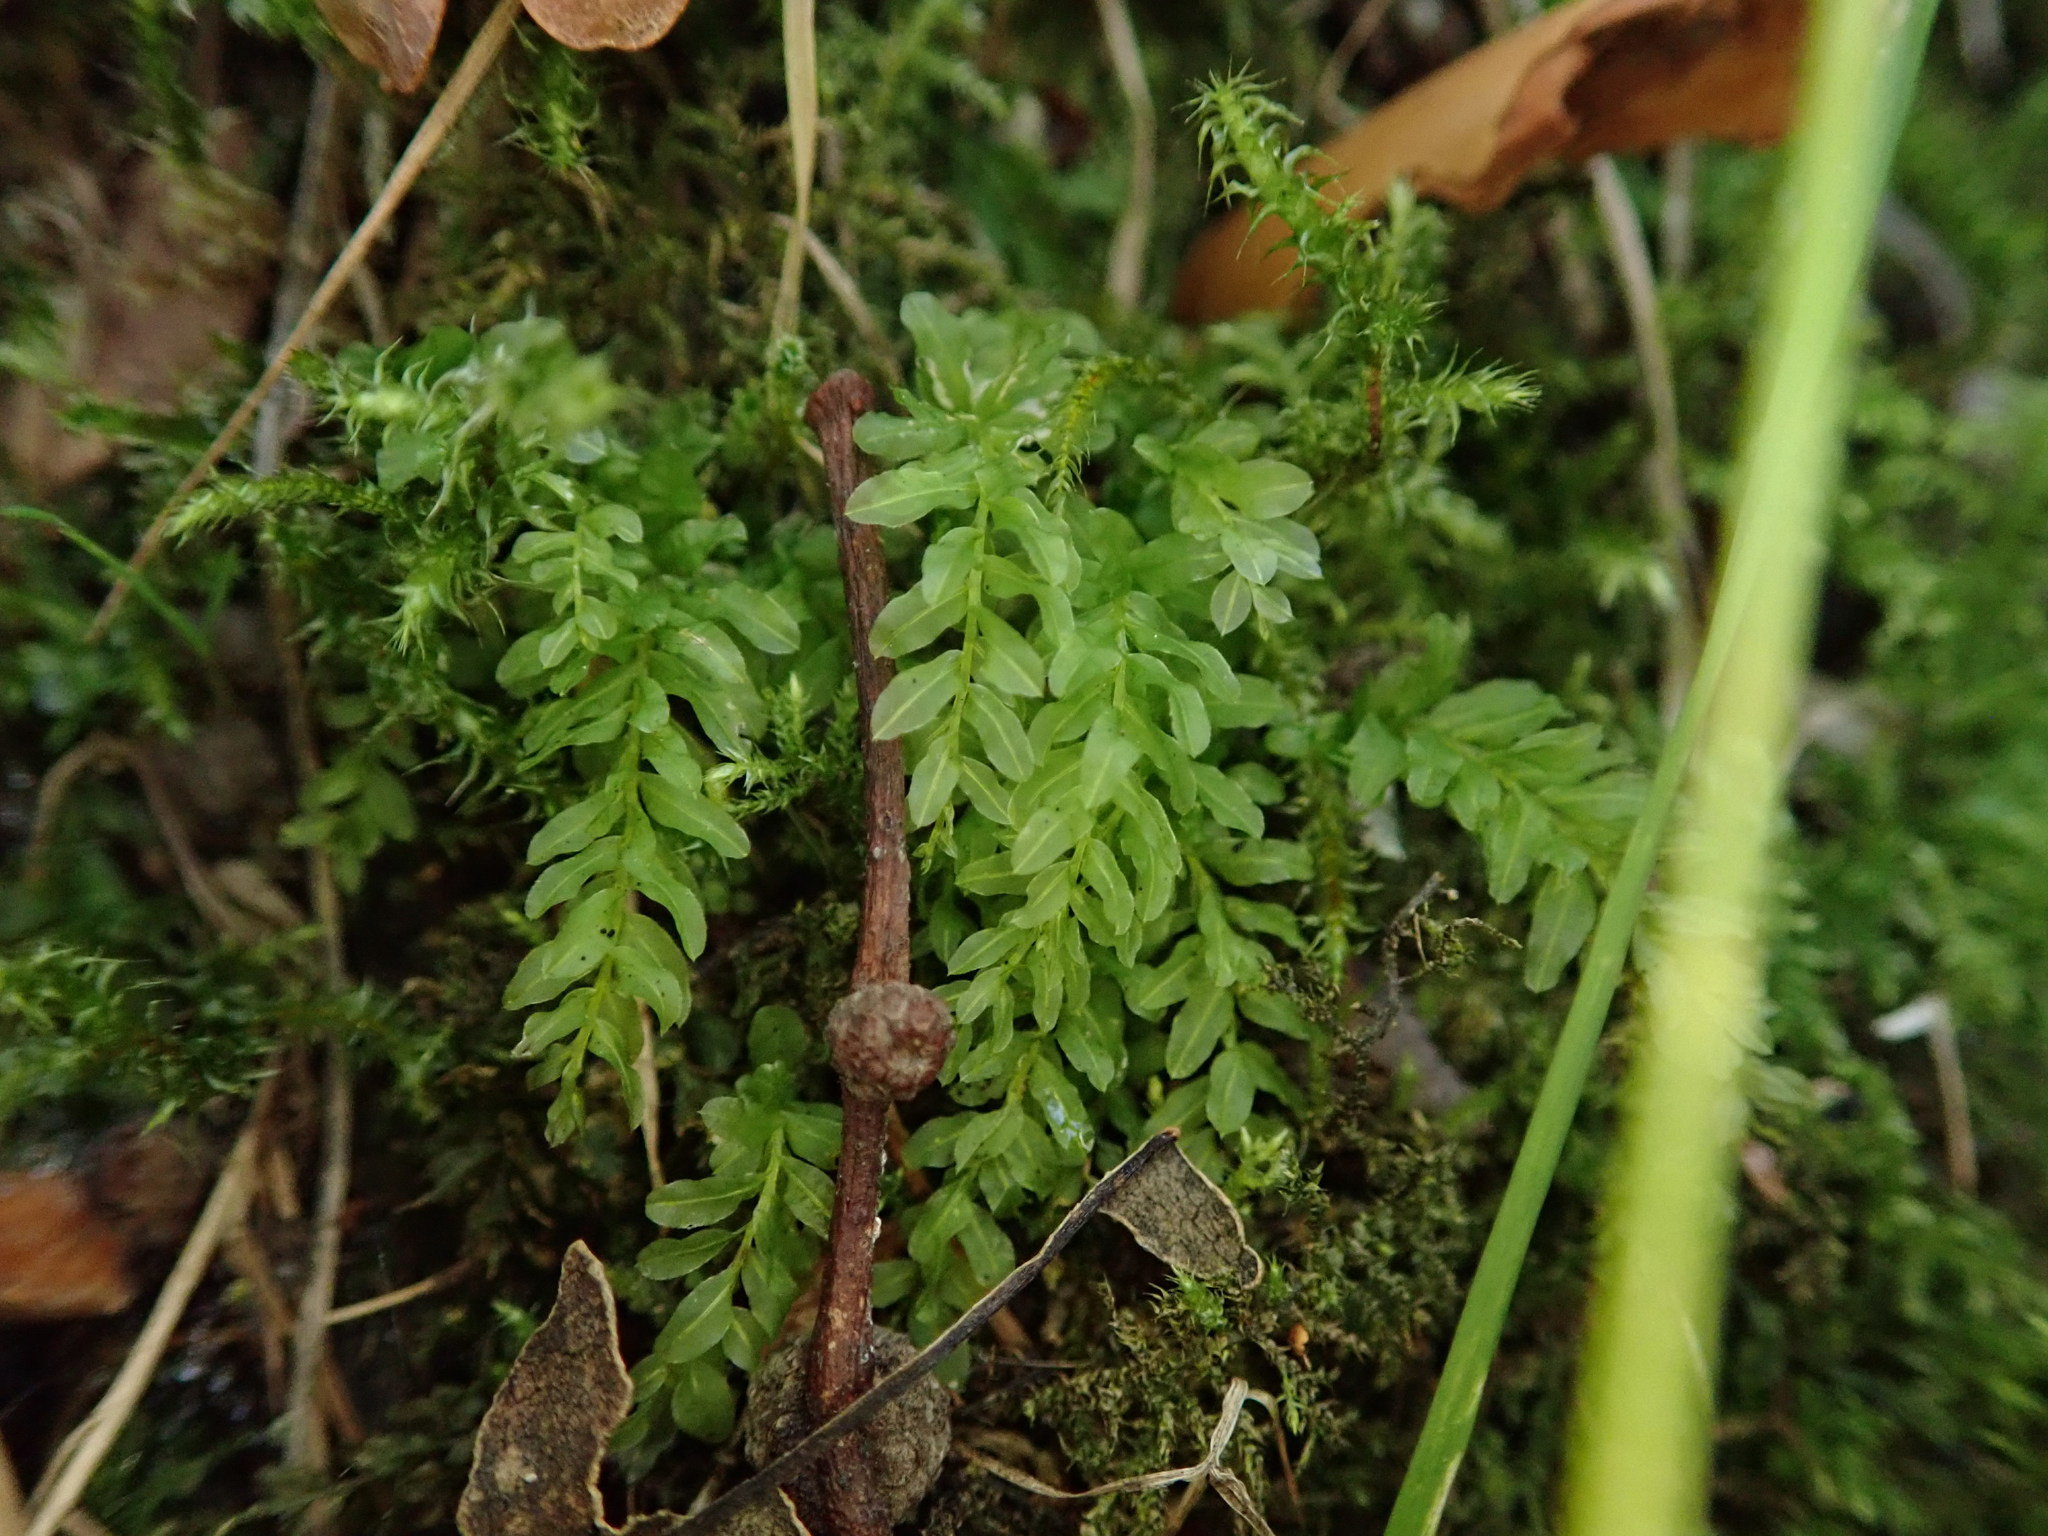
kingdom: Plantae
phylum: Bryophyta
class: Bryopsida
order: Bryales
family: Mniaceae
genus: Plagiomnium
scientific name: Plagiomnium undulatum
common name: Hart's-tongue thyme-moss
